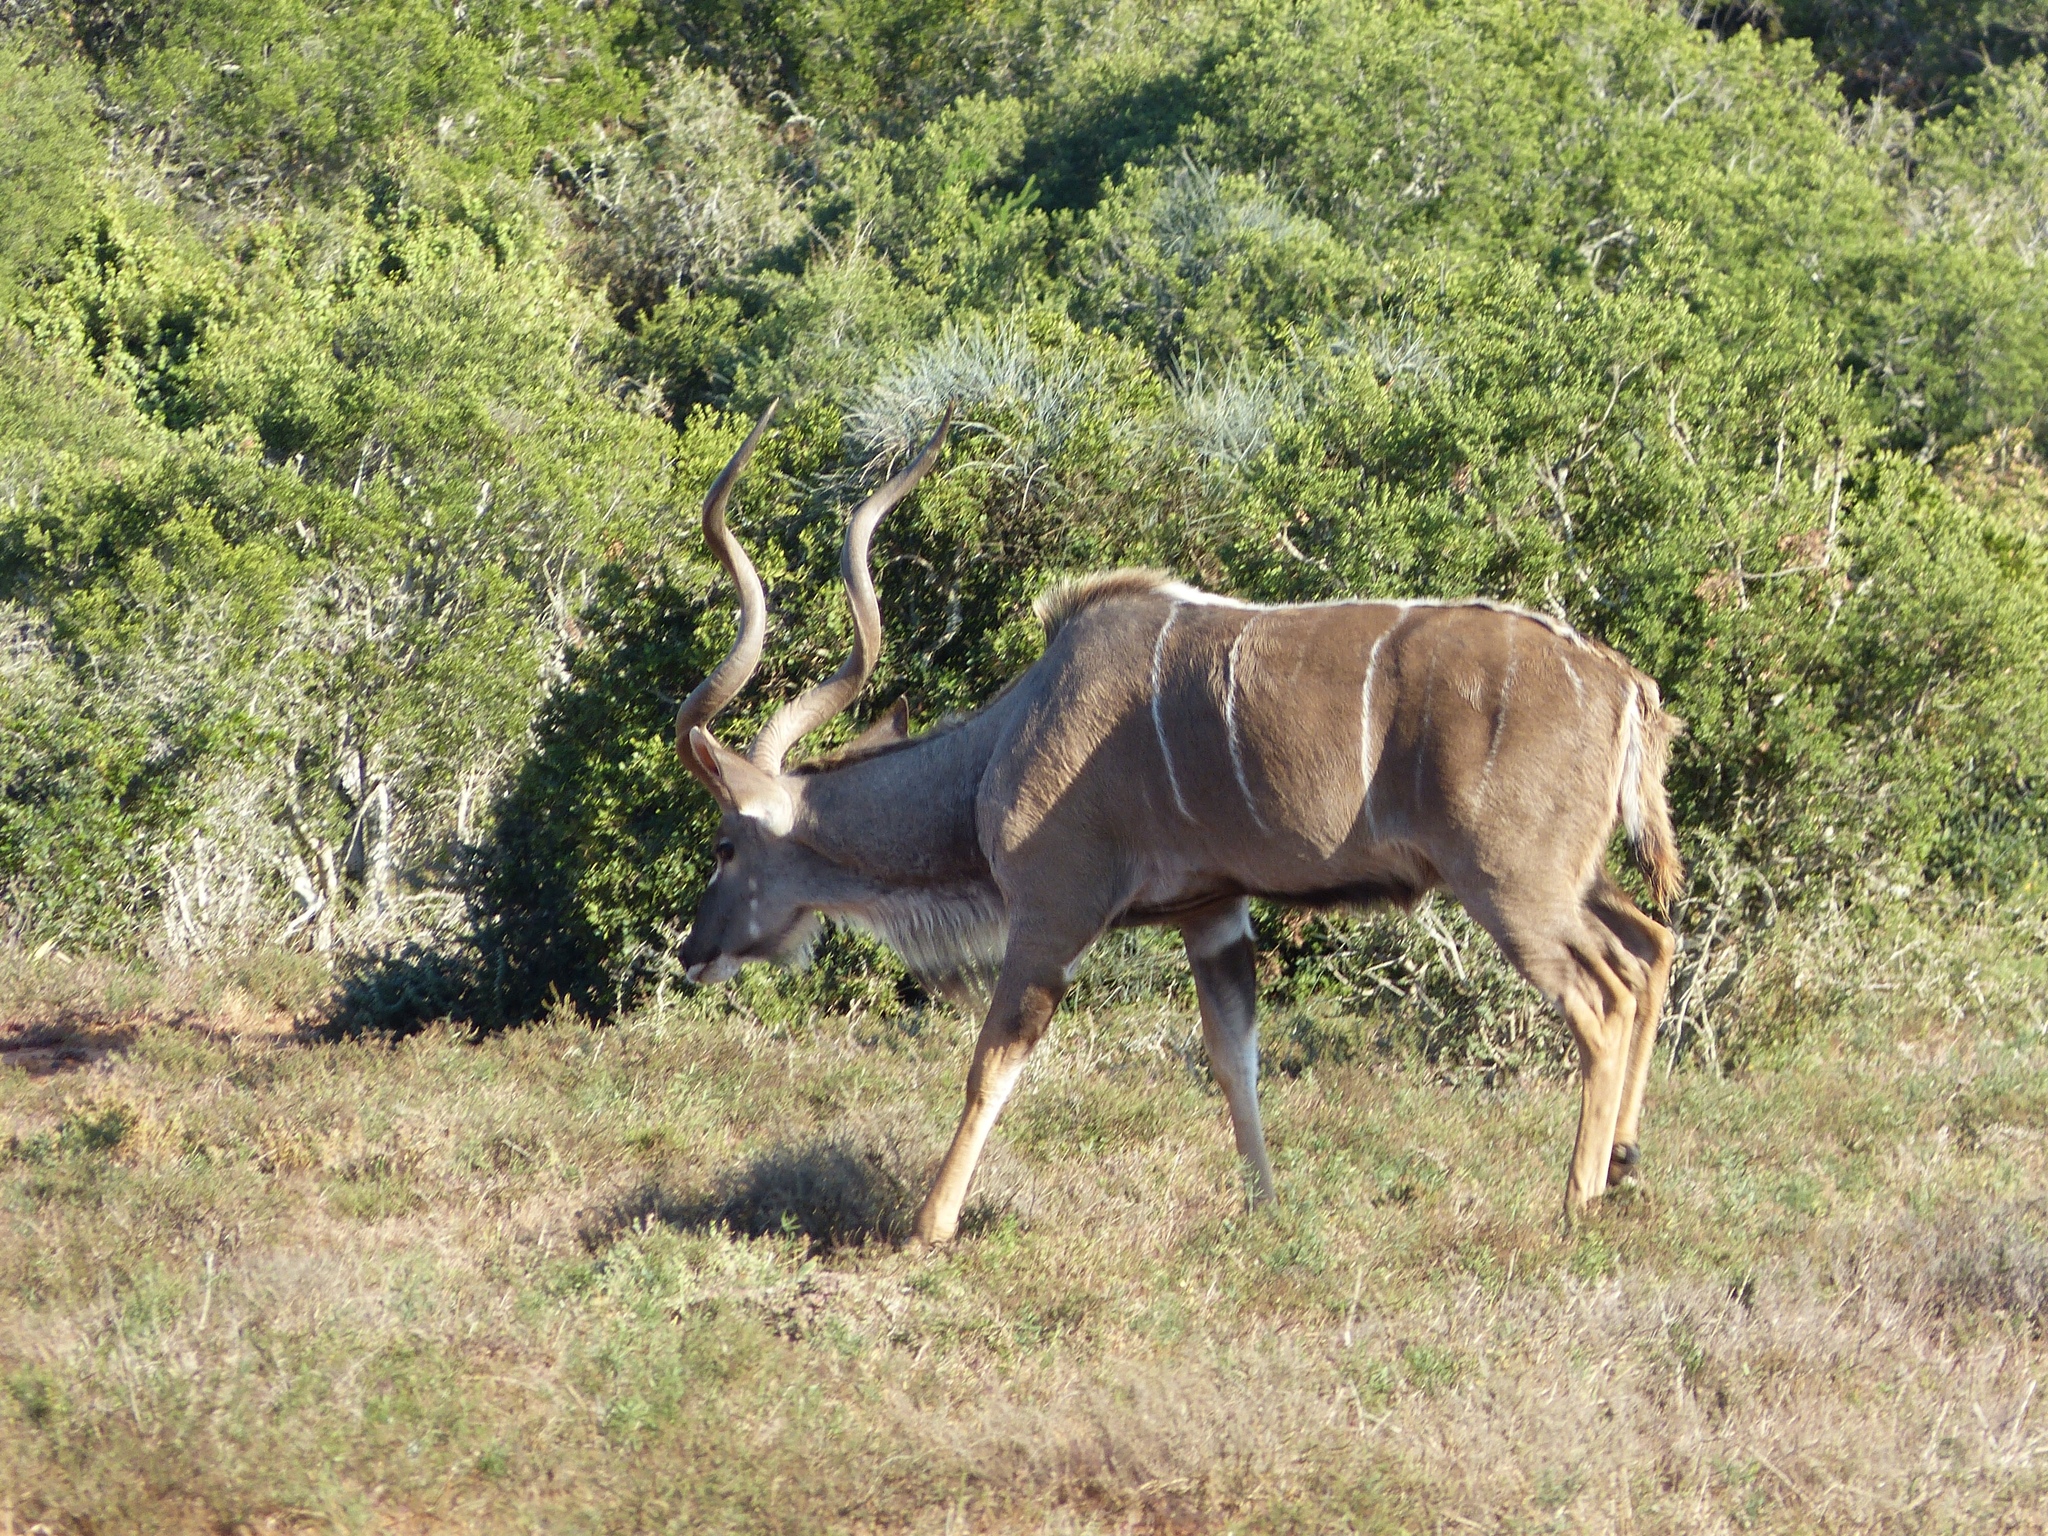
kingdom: Animalia
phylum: Chordata
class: Mammalia
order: Artiodactyla
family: Bovidae
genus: Tragelaphus
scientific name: Tragelaphus strepsiceros
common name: Greater kudu
